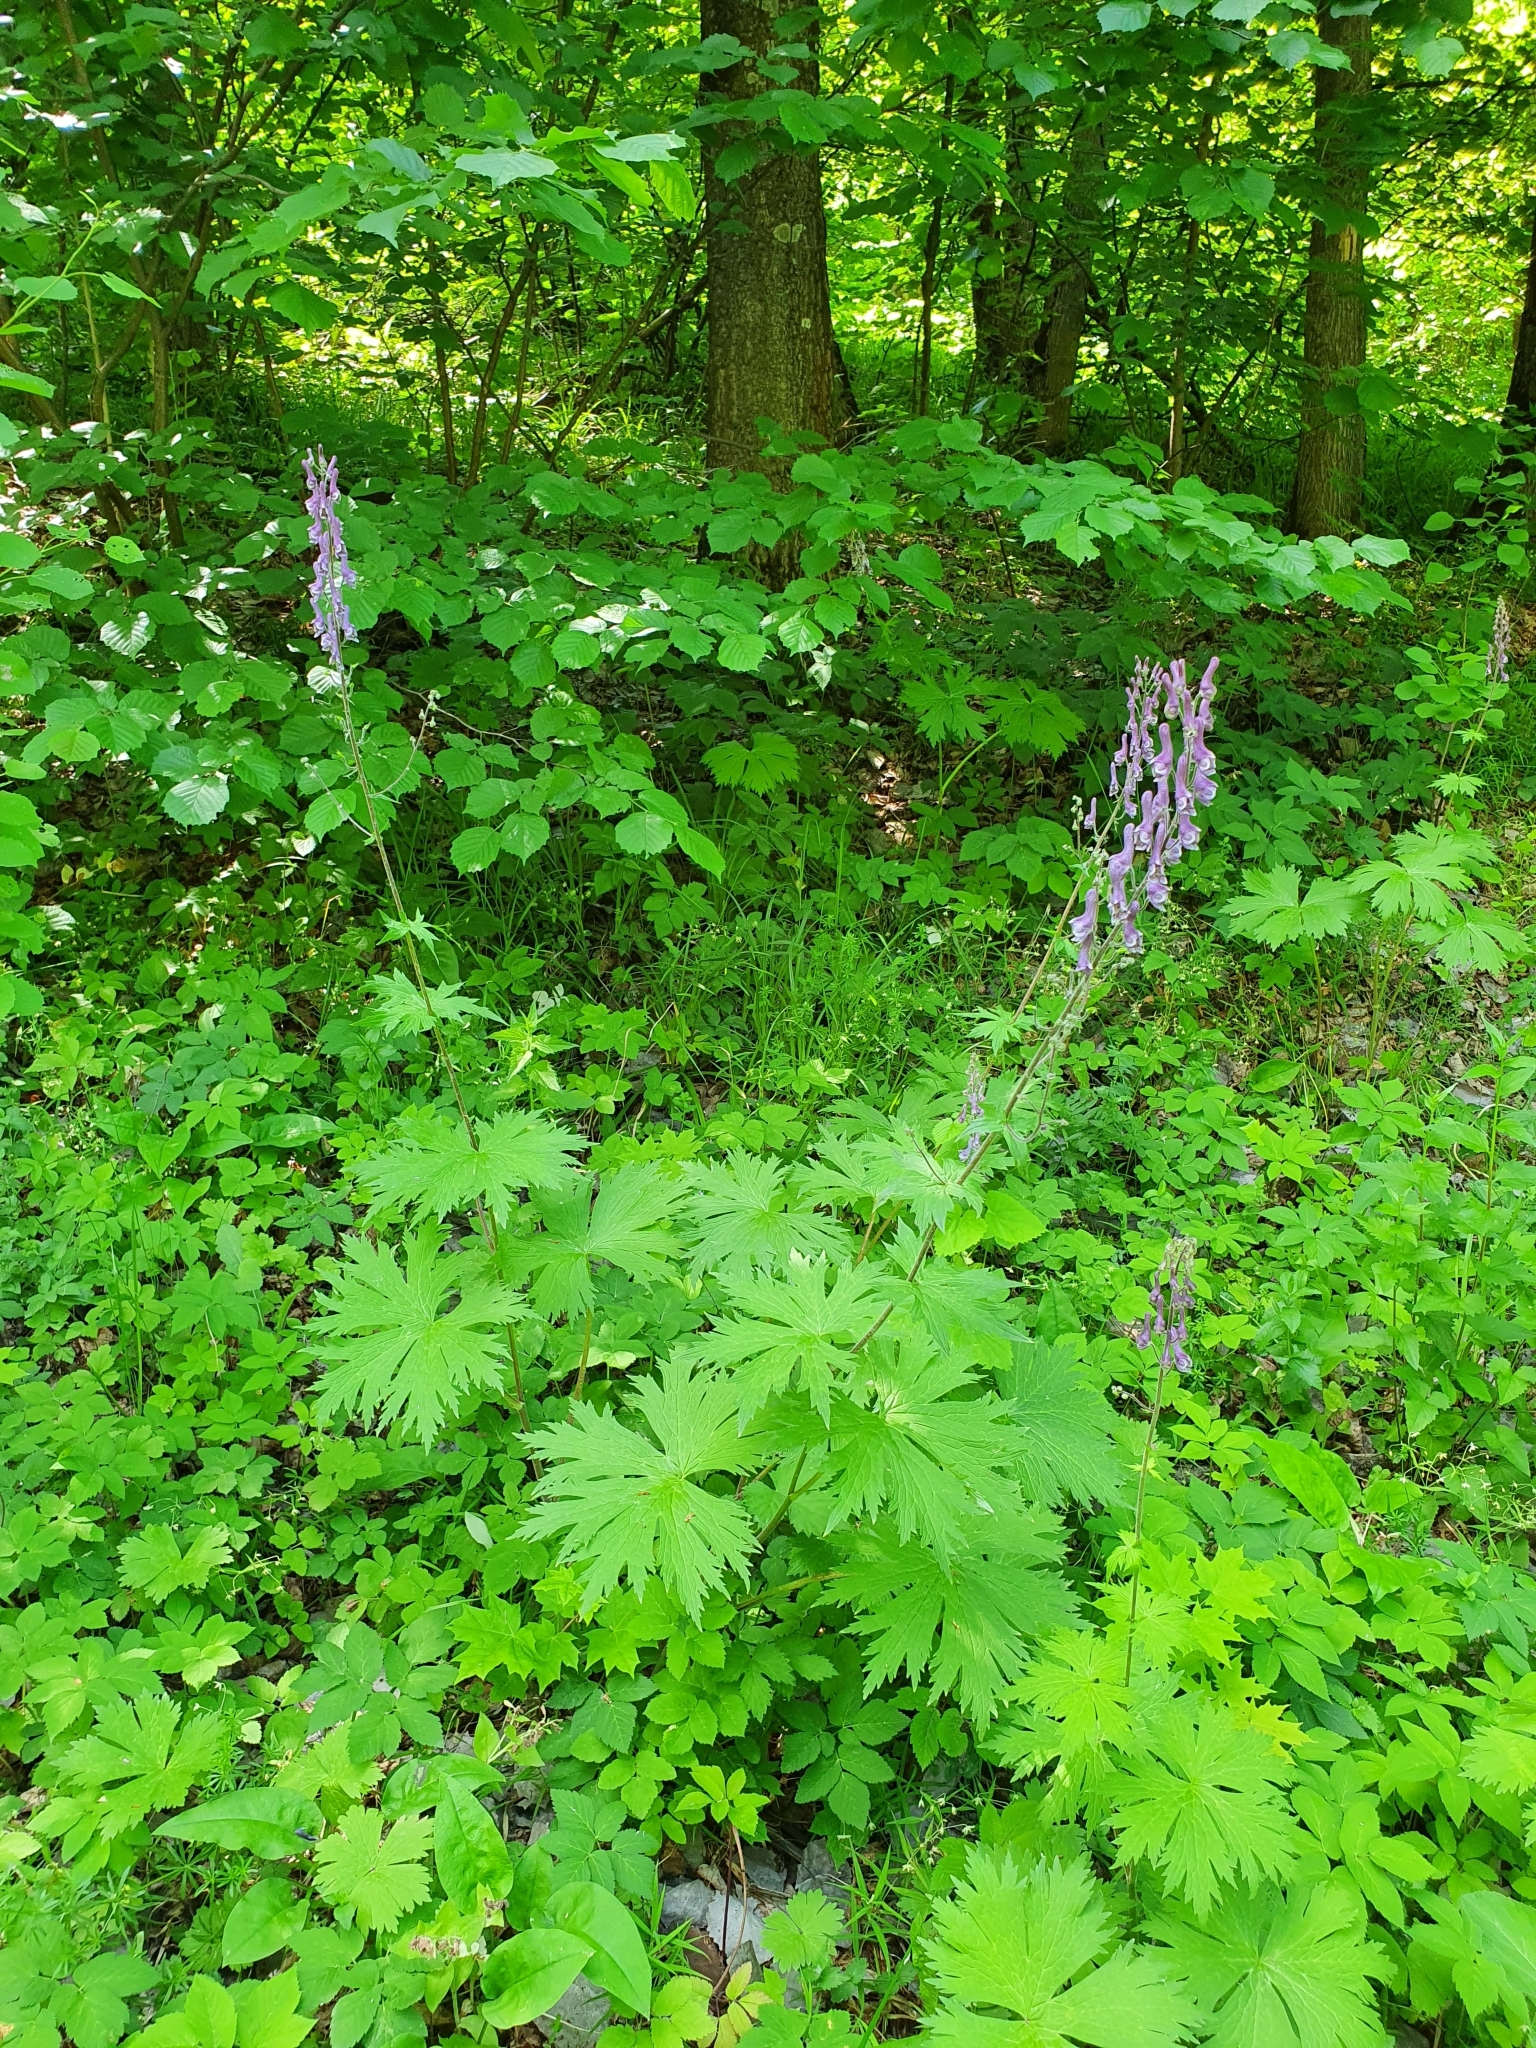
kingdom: Plantae
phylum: Tracheophyta
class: Magnoliopsida
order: Ranunculales
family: Ranunculaceae
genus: Aconitum
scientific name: Aconitum septentrionale
